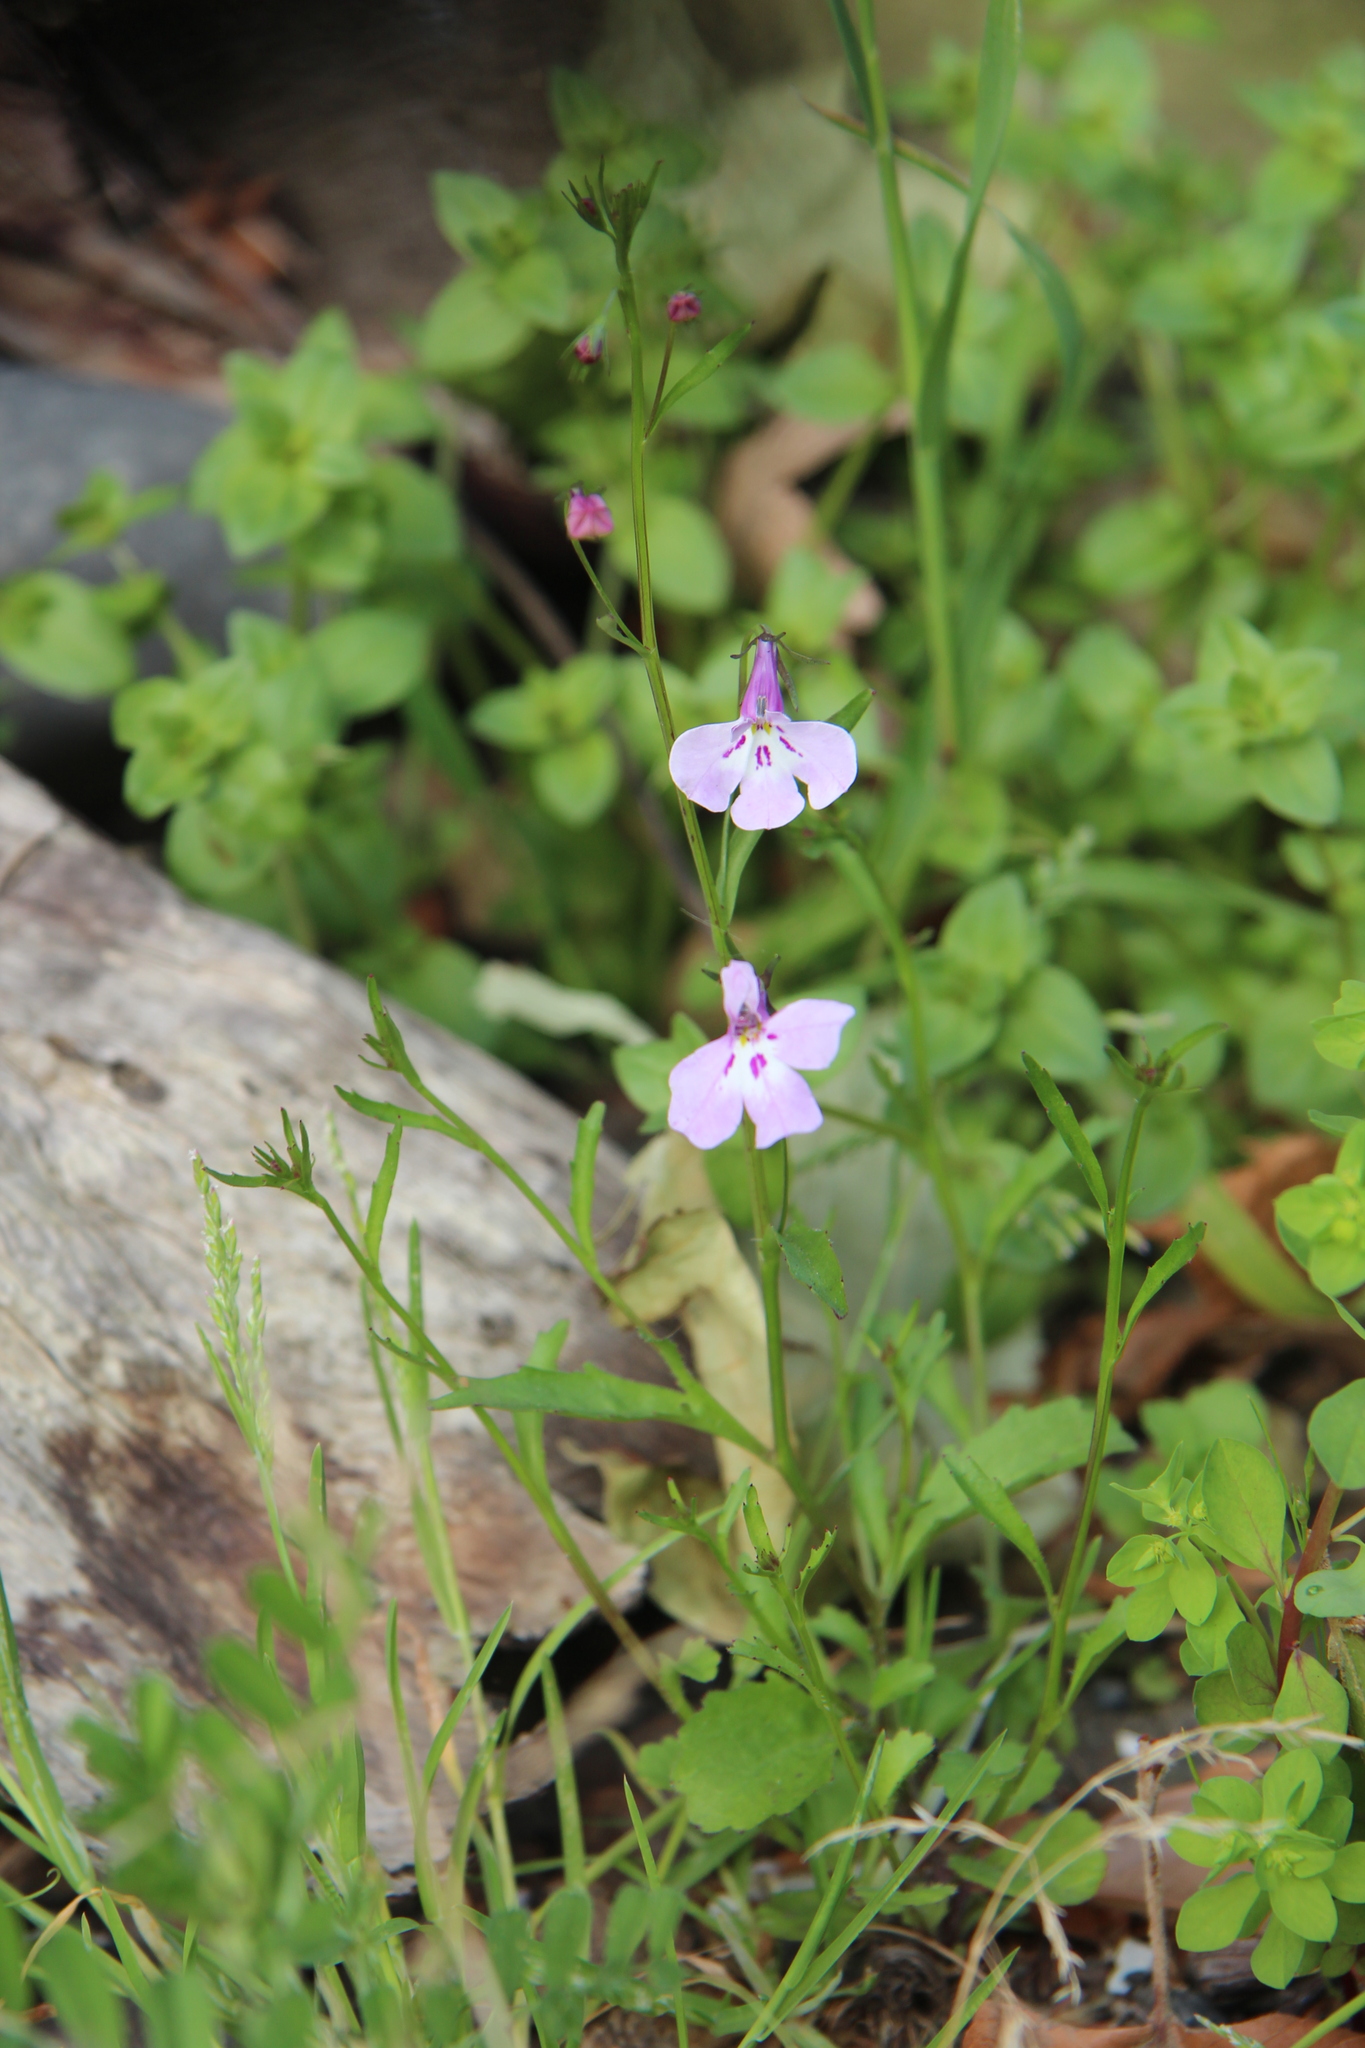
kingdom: Plantae
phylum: Tracheophyta
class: Magnoliopsida
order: Asterales
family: Campanulaceae
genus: Lobelia
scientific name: Lobelia erinus
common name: Edging lobelia
